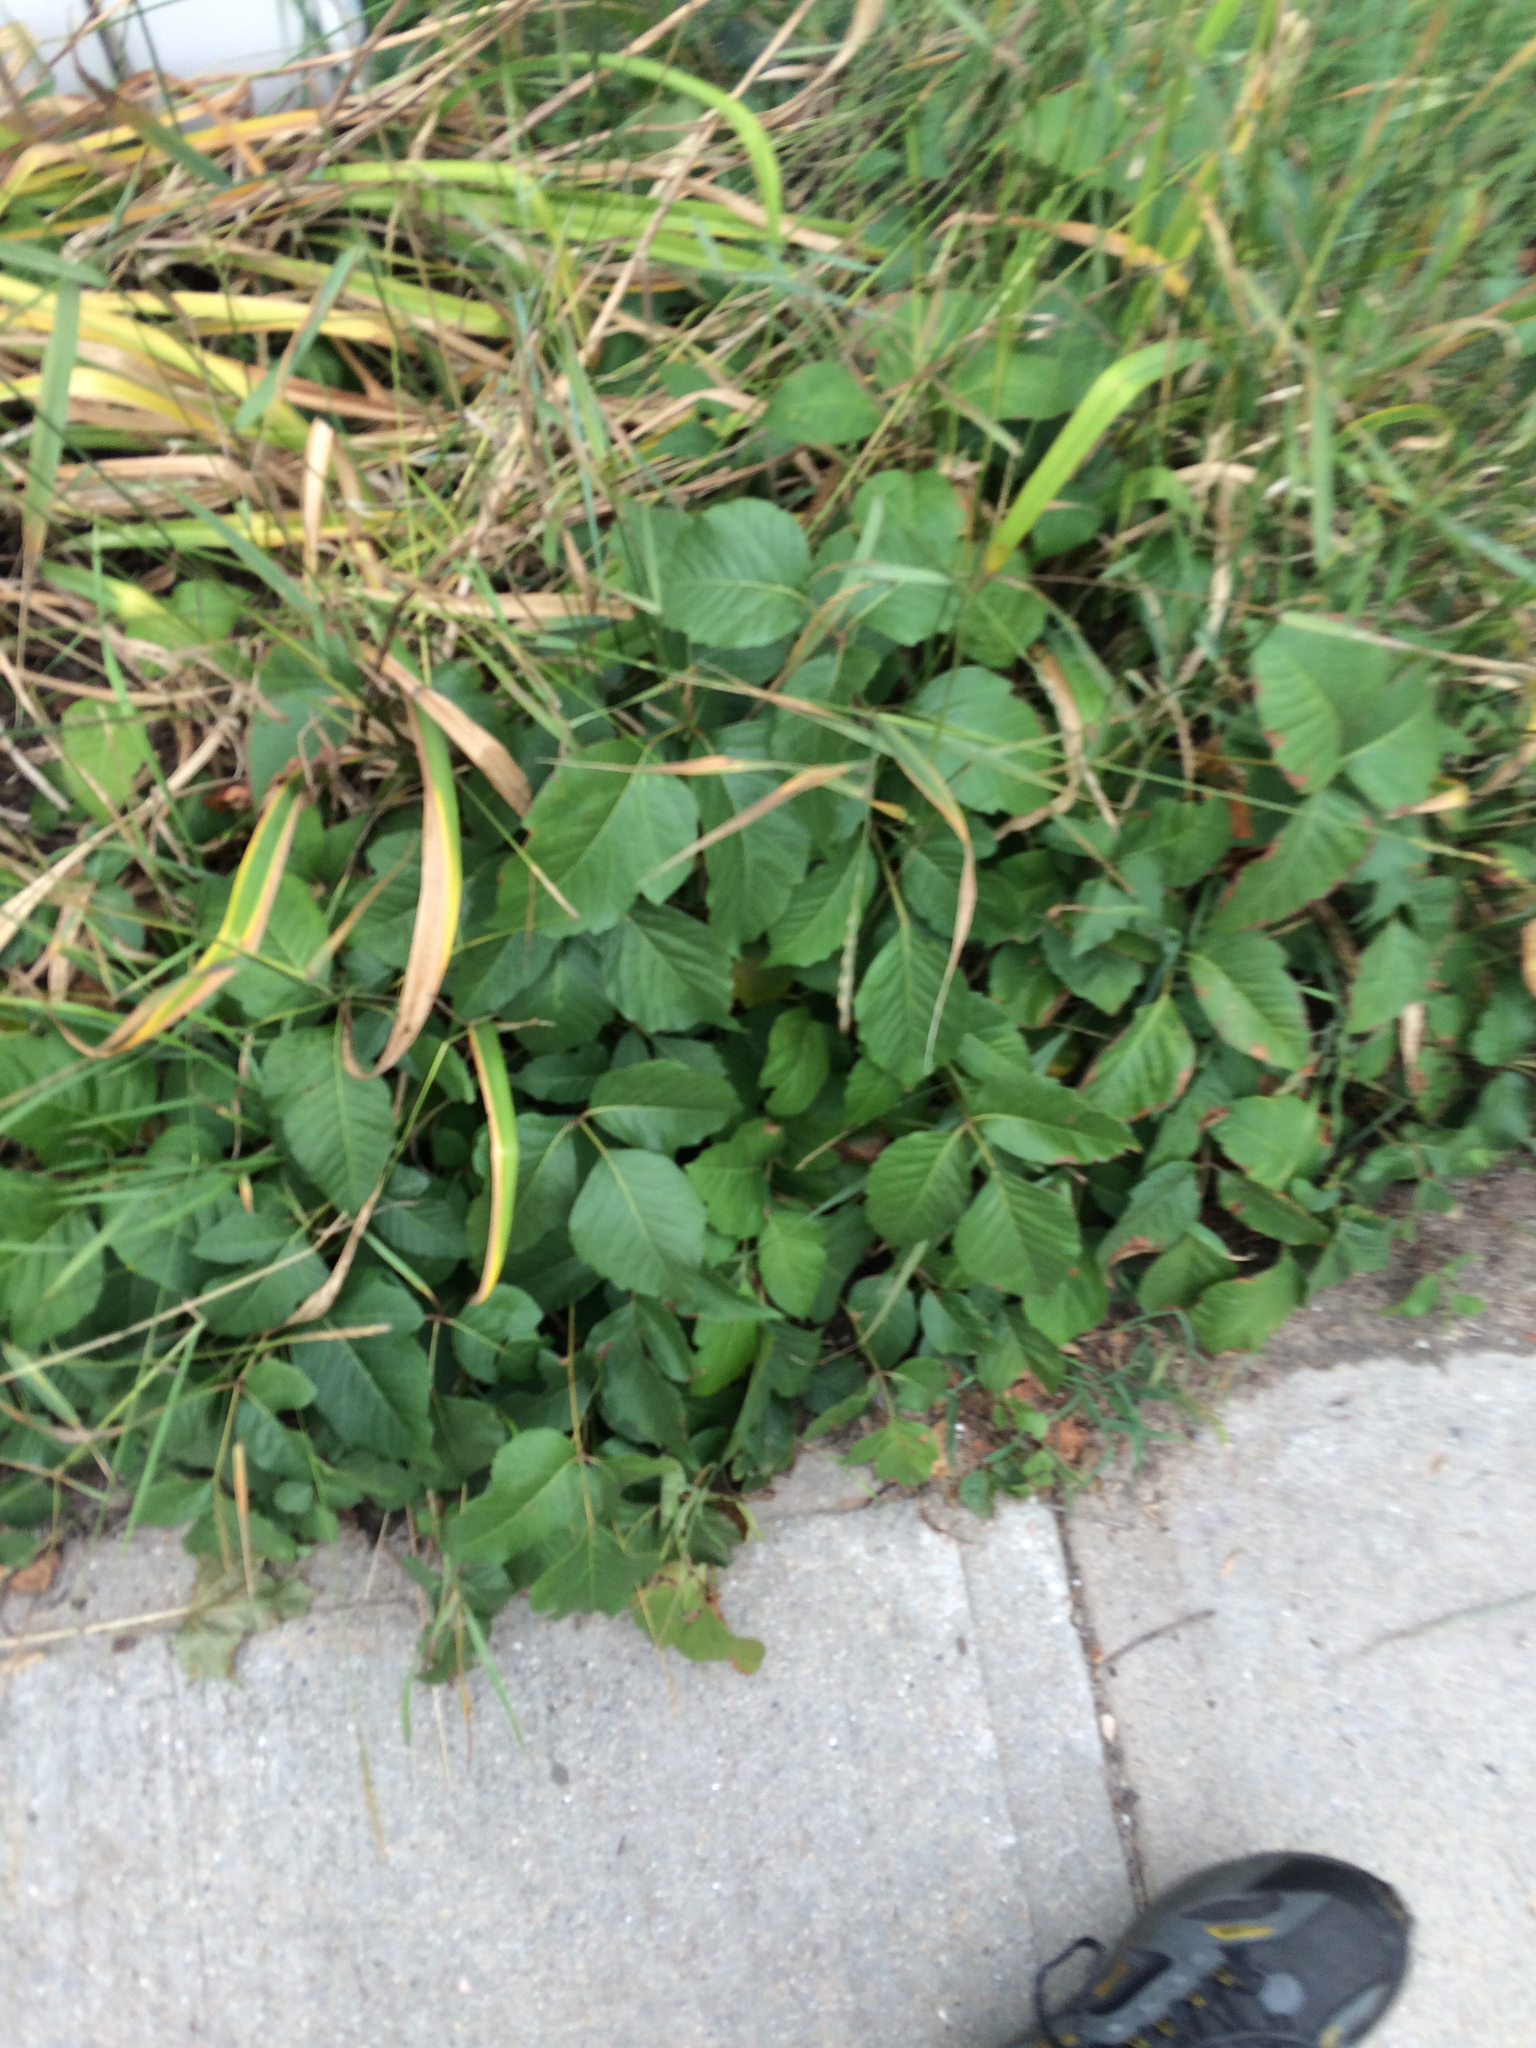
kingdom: Plantae
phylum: Tracheophyta
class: Magnoliopsida
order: Sapindales
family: Anacardiaceae
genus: Toxicodendron
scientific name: Toxicodendron radicans
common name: Poison ivy
